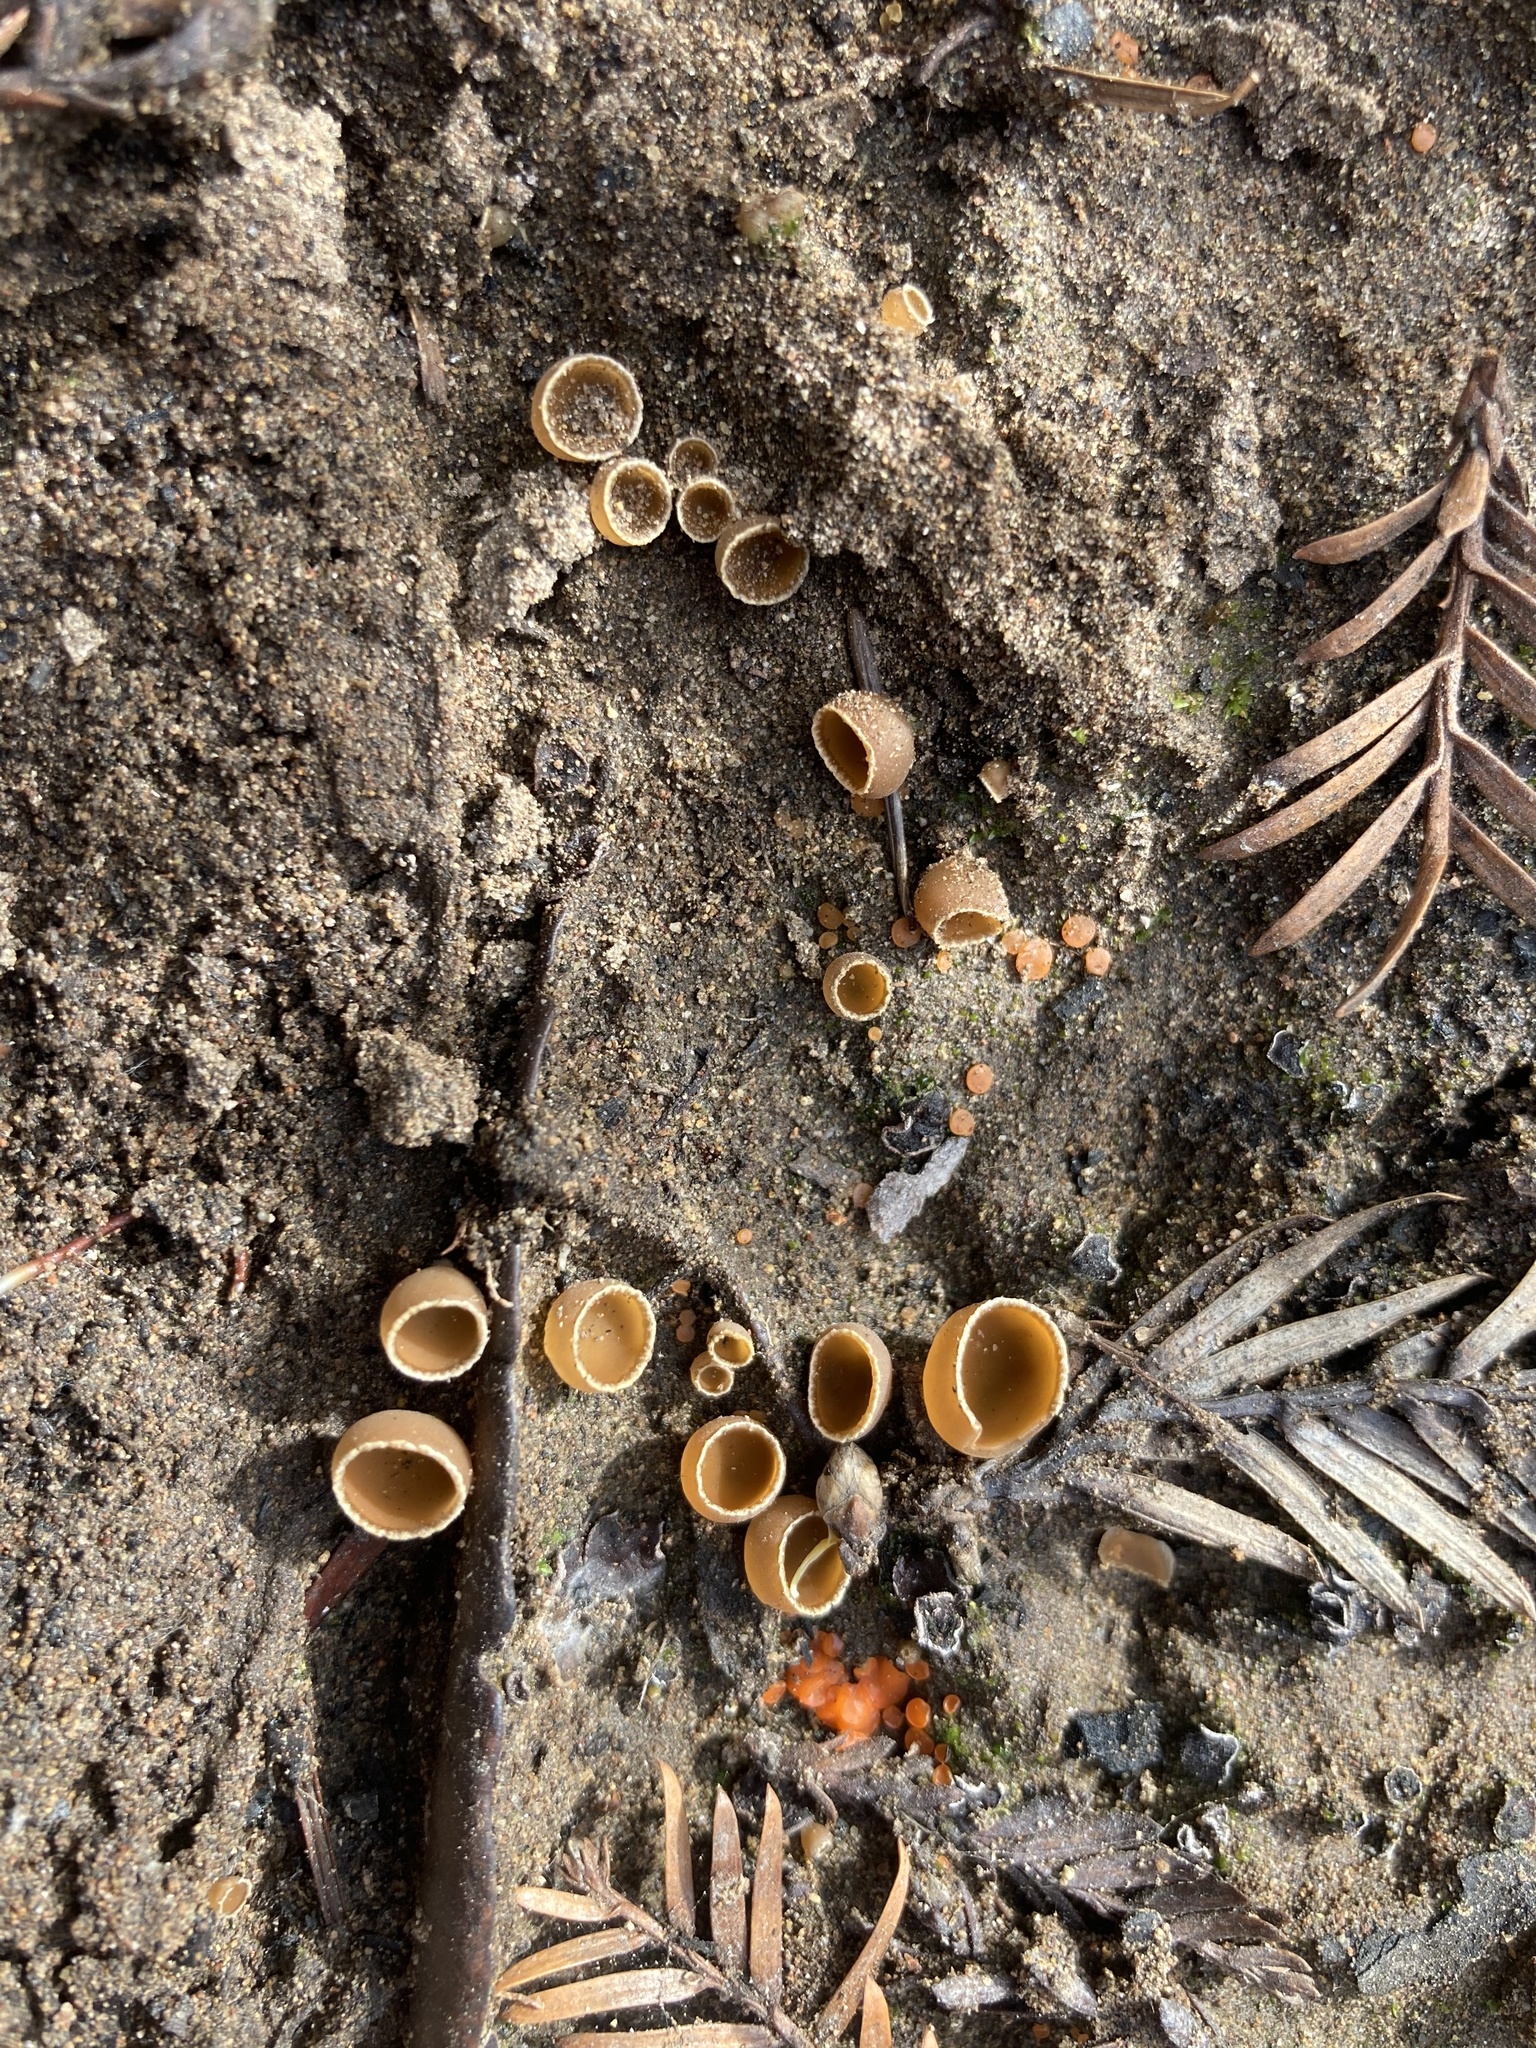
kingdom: Fungi
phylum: Ascomycota
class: Pezizomycetes
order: Pezizales
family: Pyronemataceae
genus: Geopyxis
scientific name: Geopyxis carbonaria
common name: Stalked bonfire cup
